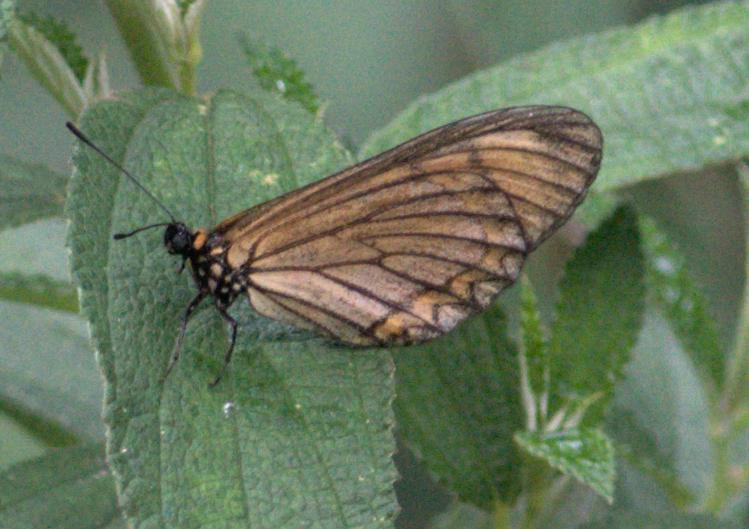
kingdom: Animalia
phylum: Arthropoda
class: Insecta
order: Lepidoptera
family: Nymphalidae
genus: Acraea
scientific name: Acraea Telchinia issoria
